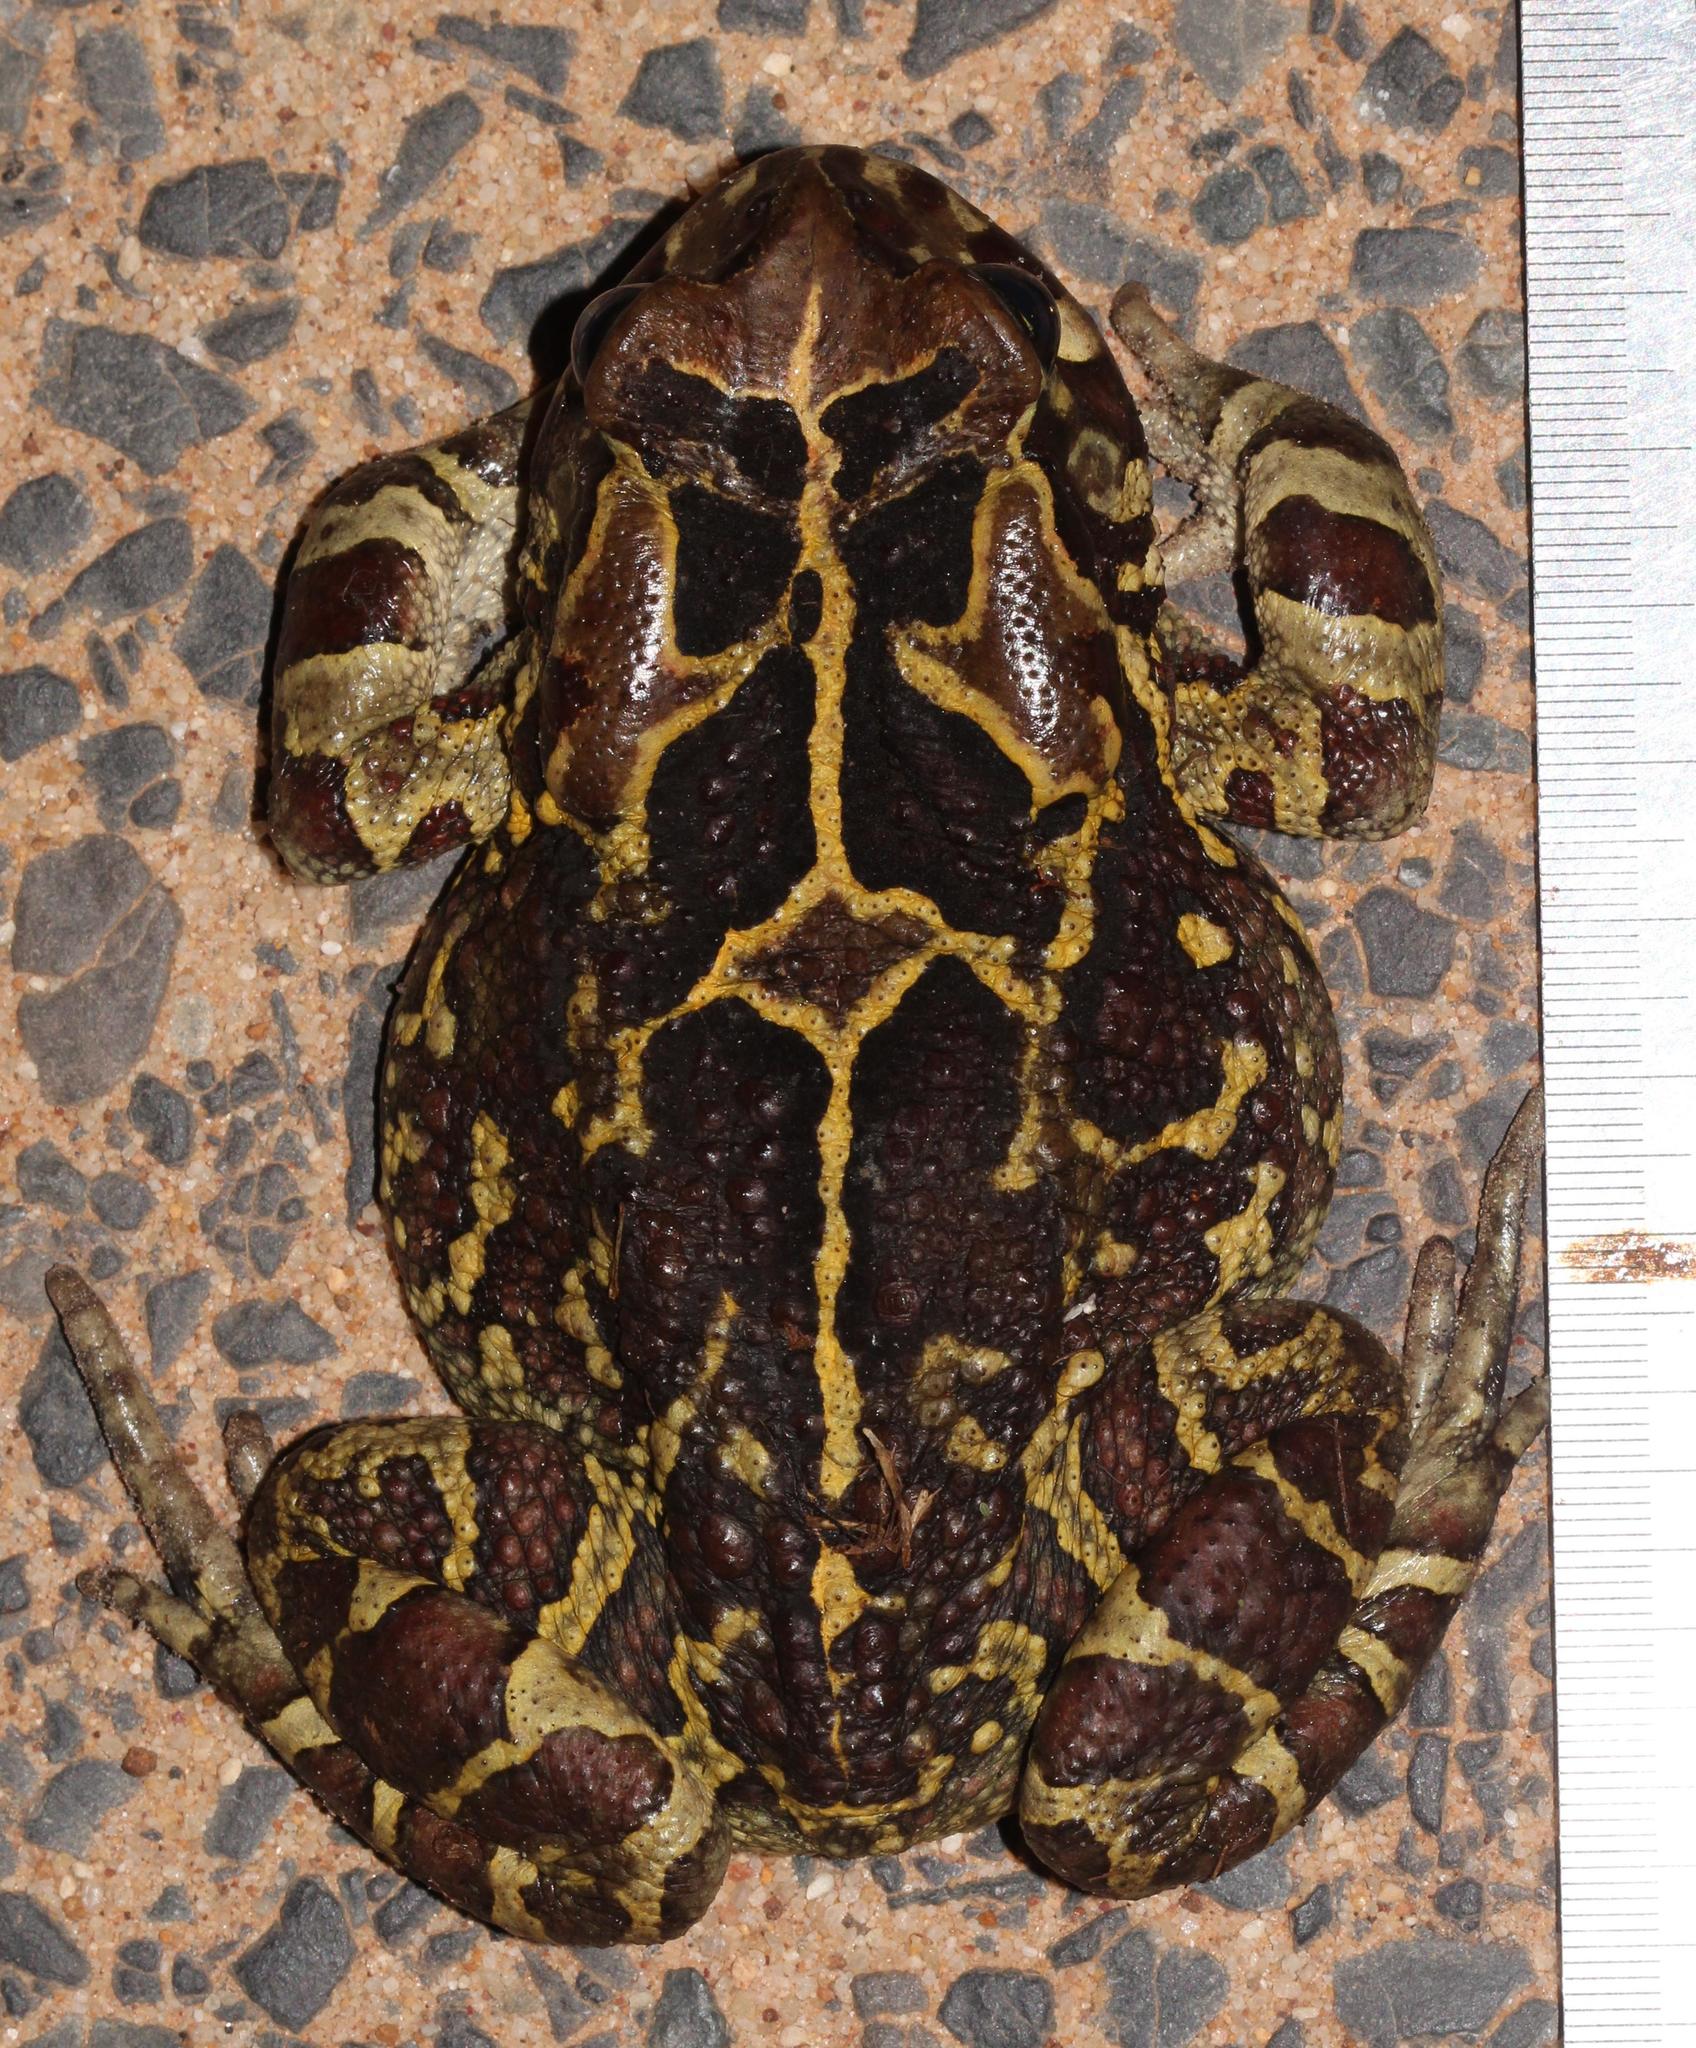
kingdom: Animalia
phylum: Chordata
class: Amphibia
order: Anura
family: Bufonidae
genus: Sclerophrys
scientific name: Sclerophrys pantherina
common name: Panther toad
